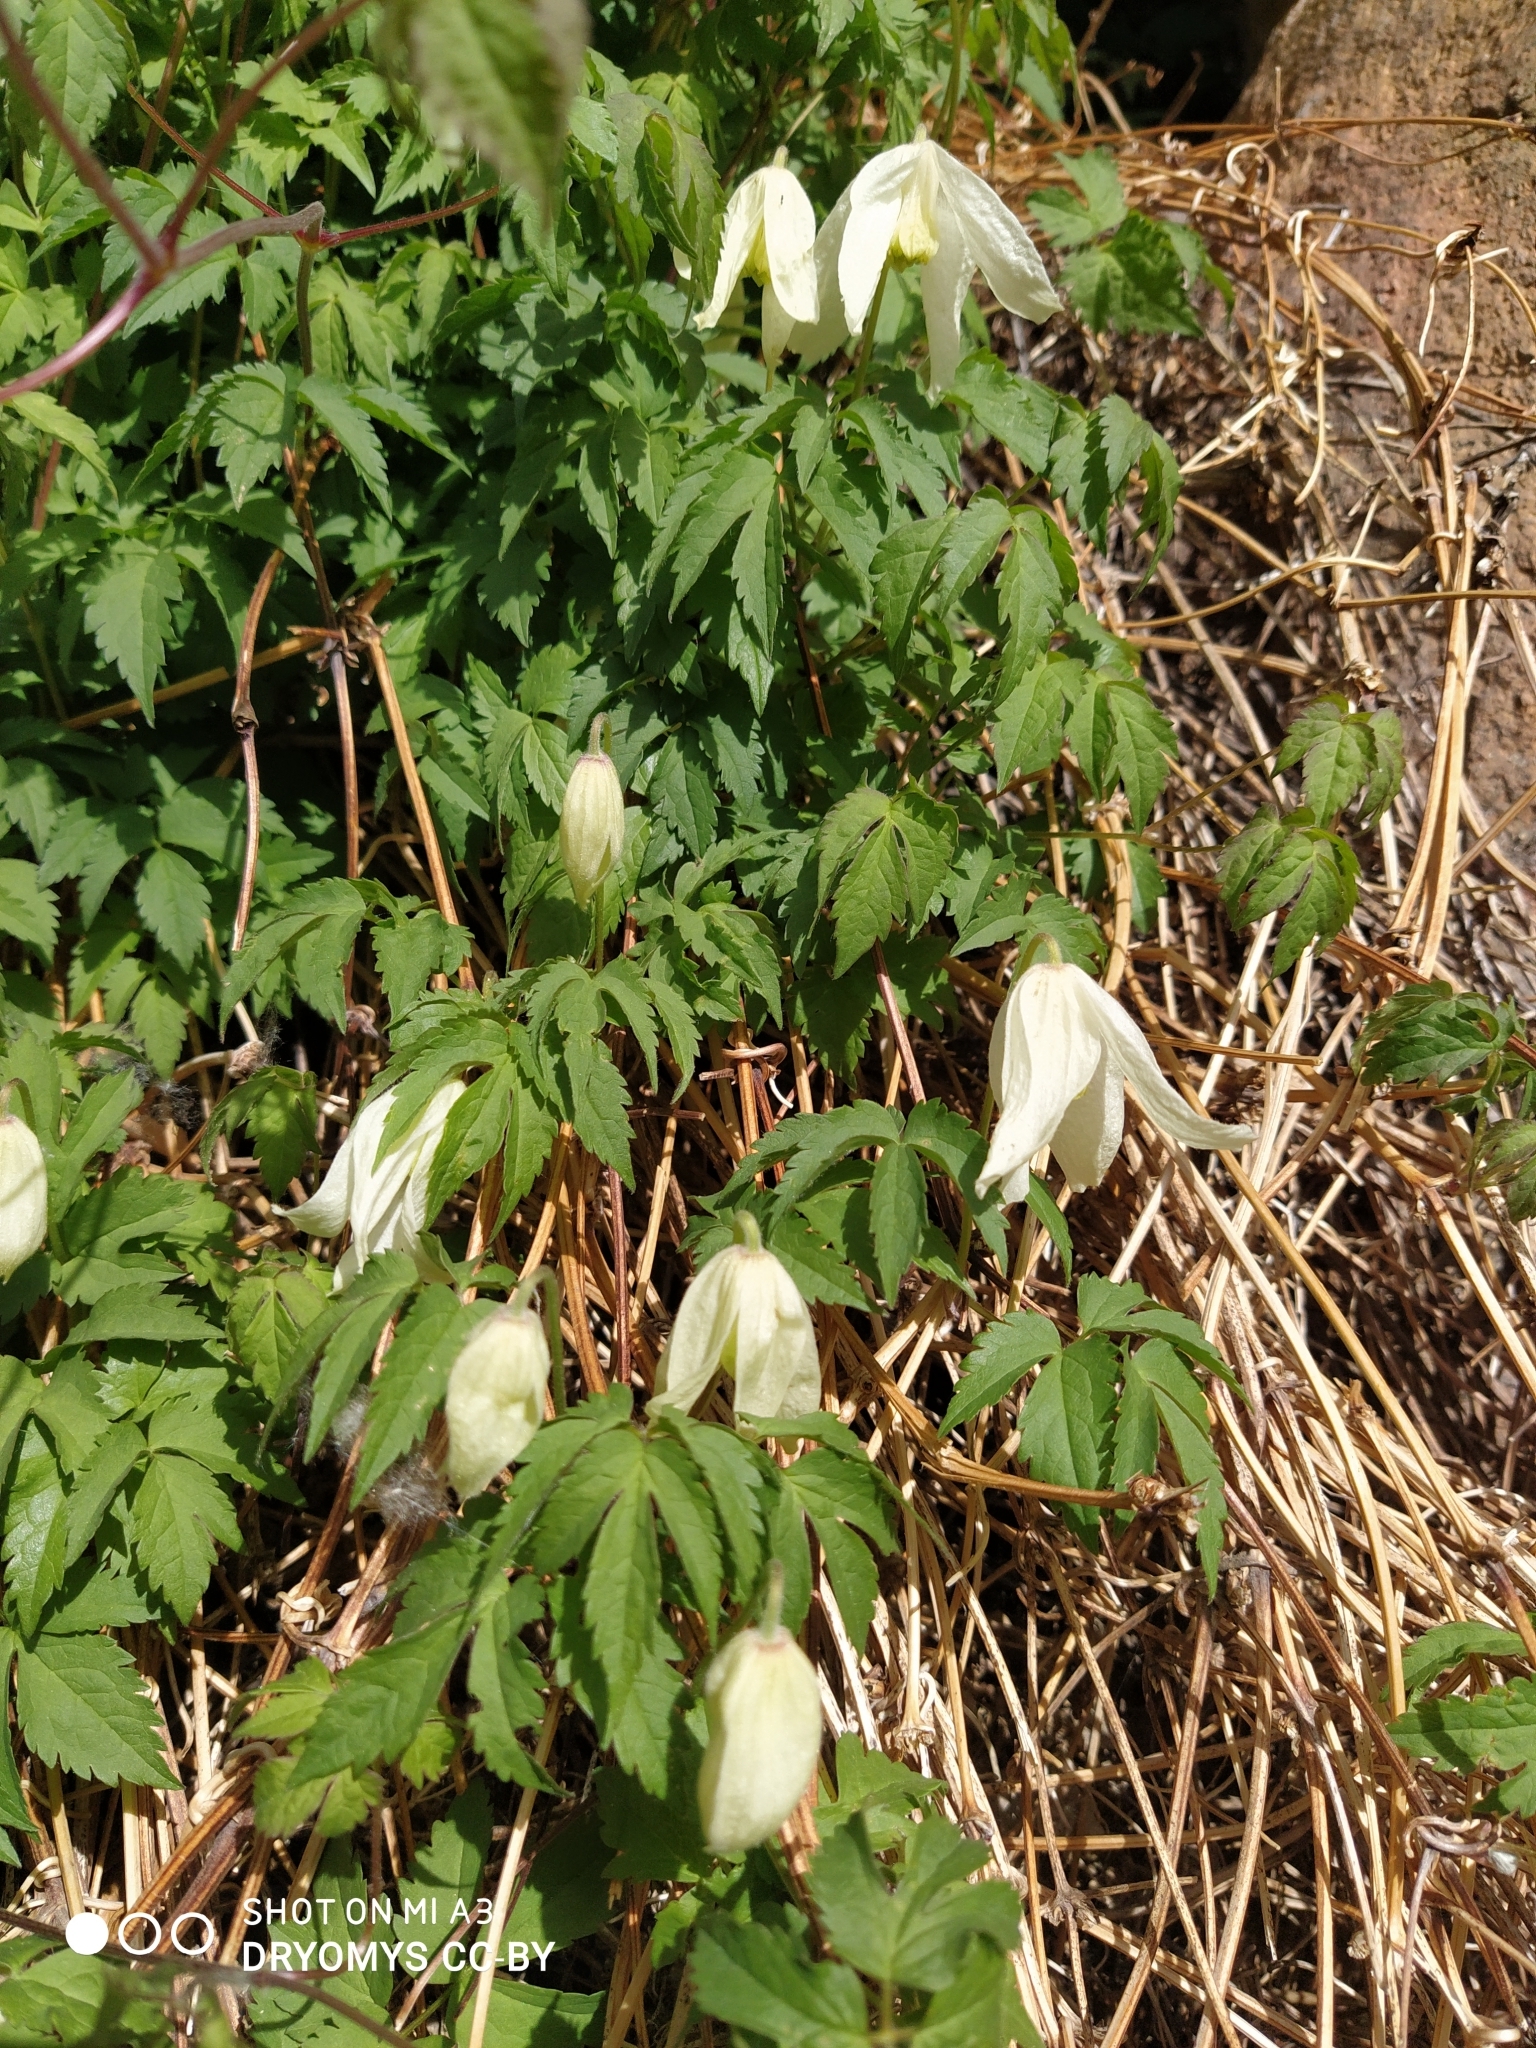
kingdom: Plantae
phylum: Tracheophyta
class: Magnoliopsida
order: Ranunculales
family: Ranunculaceae
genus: Clematis
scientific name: Clematis sibirica
